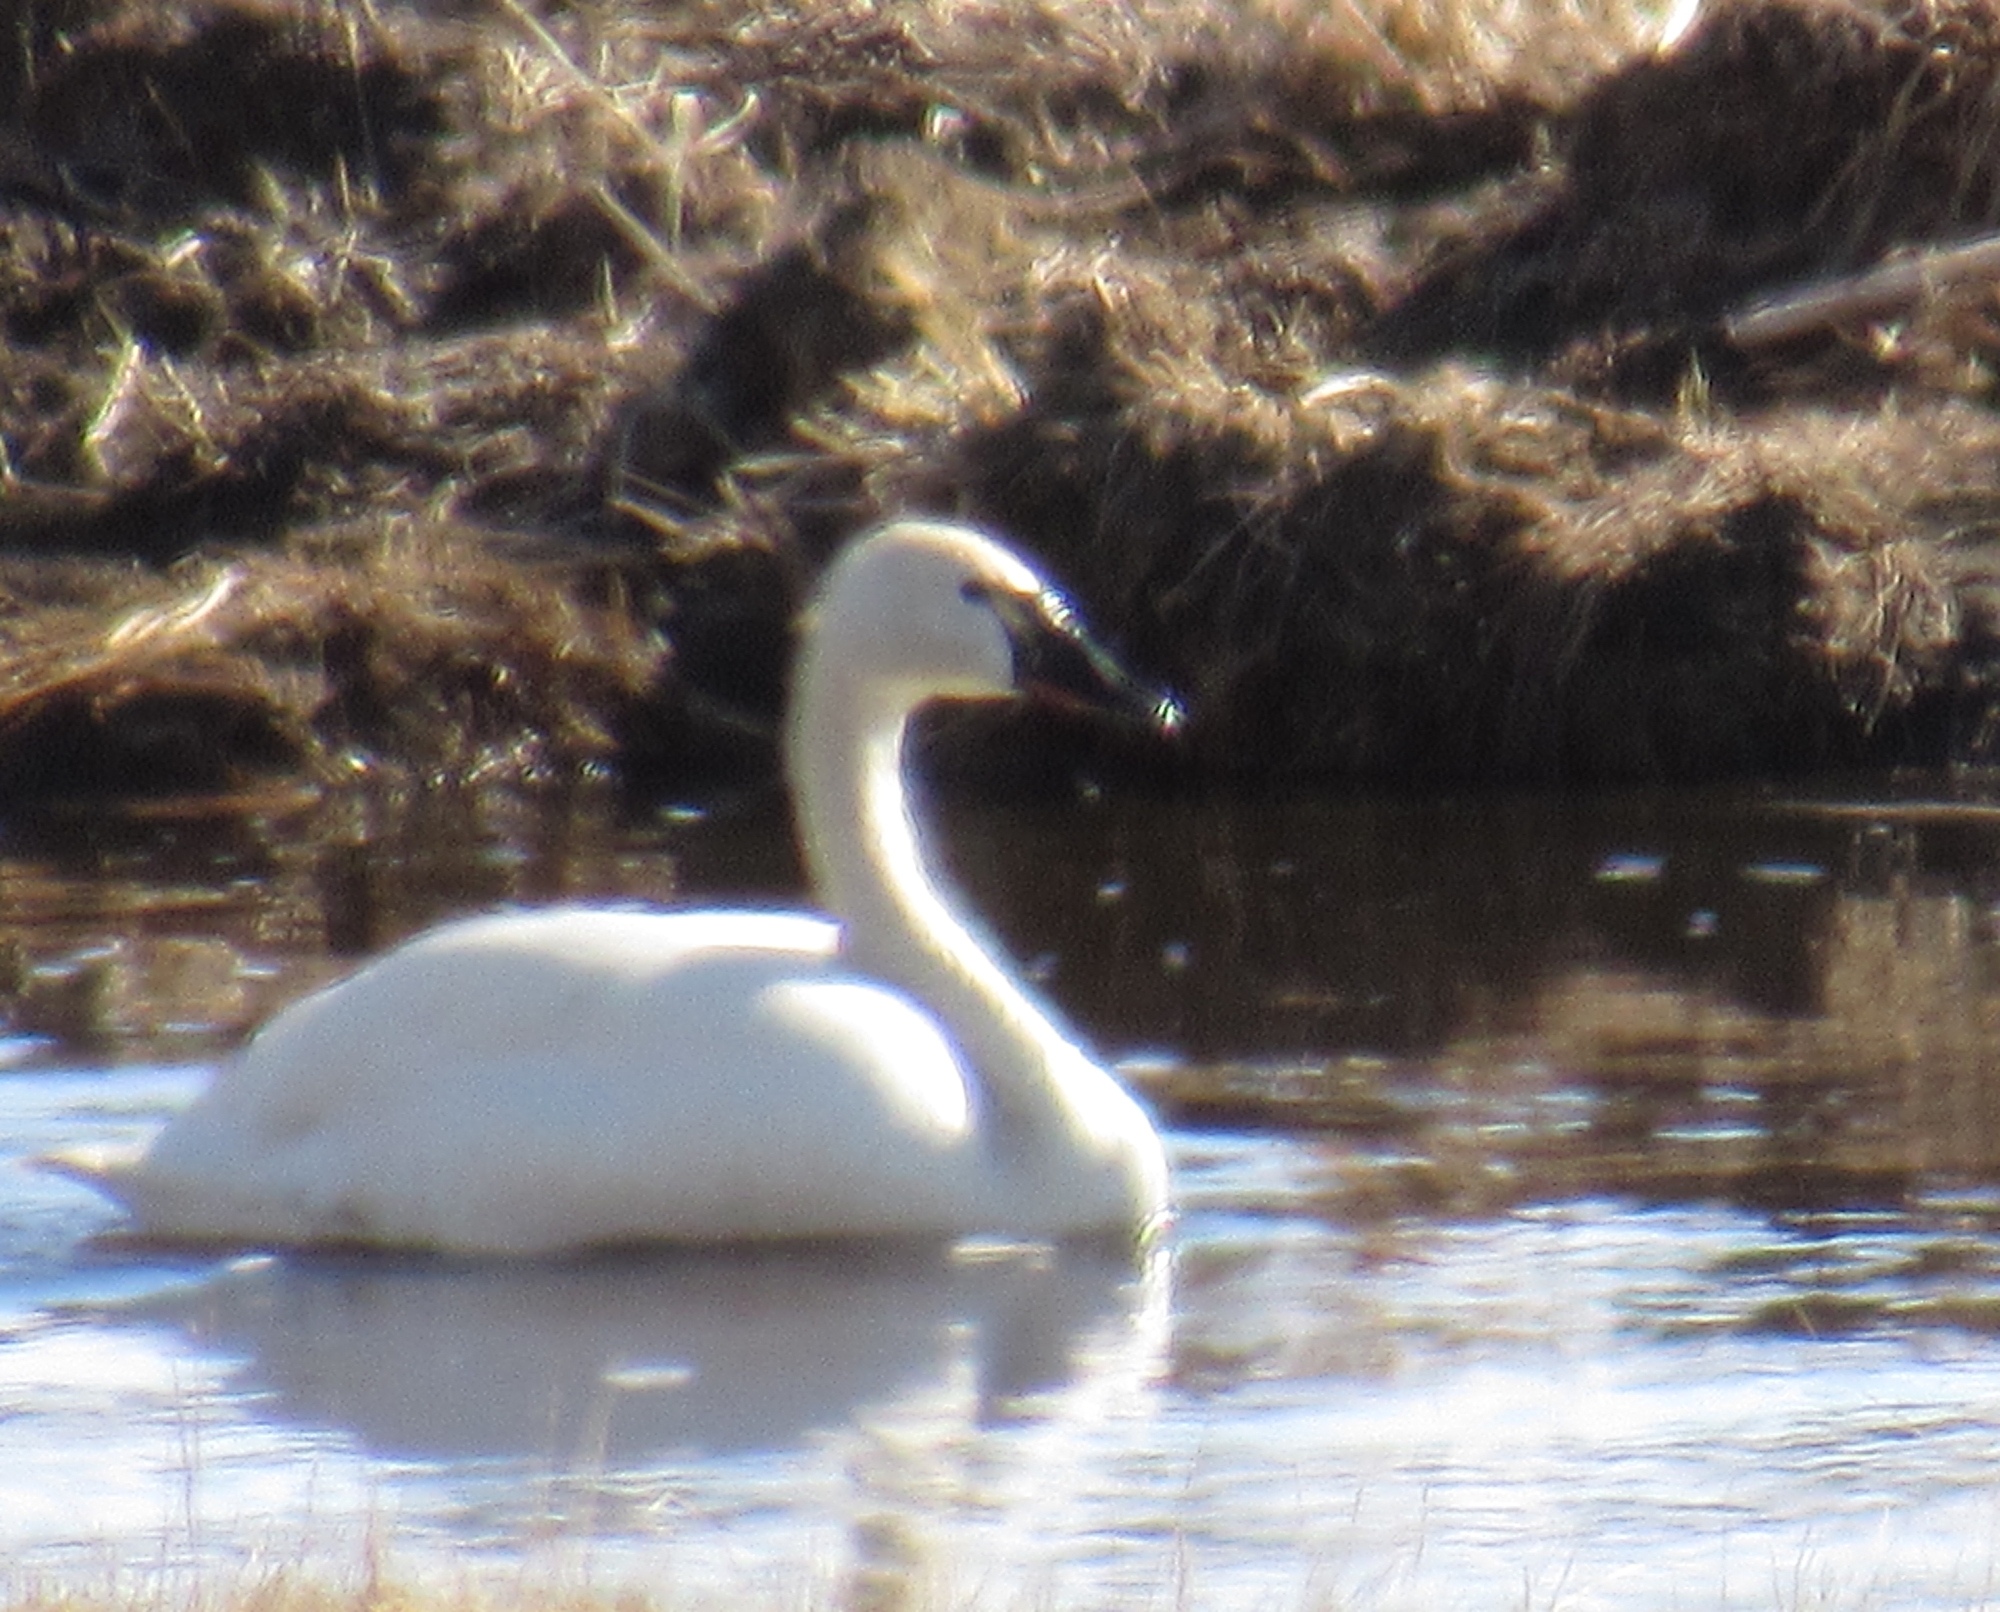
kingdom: Animalia
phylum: Chordata
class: Aves
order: Anseriformes
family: Anatidae
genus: Cygnus
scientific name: Cygnus columbianus
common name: Tundra swan
